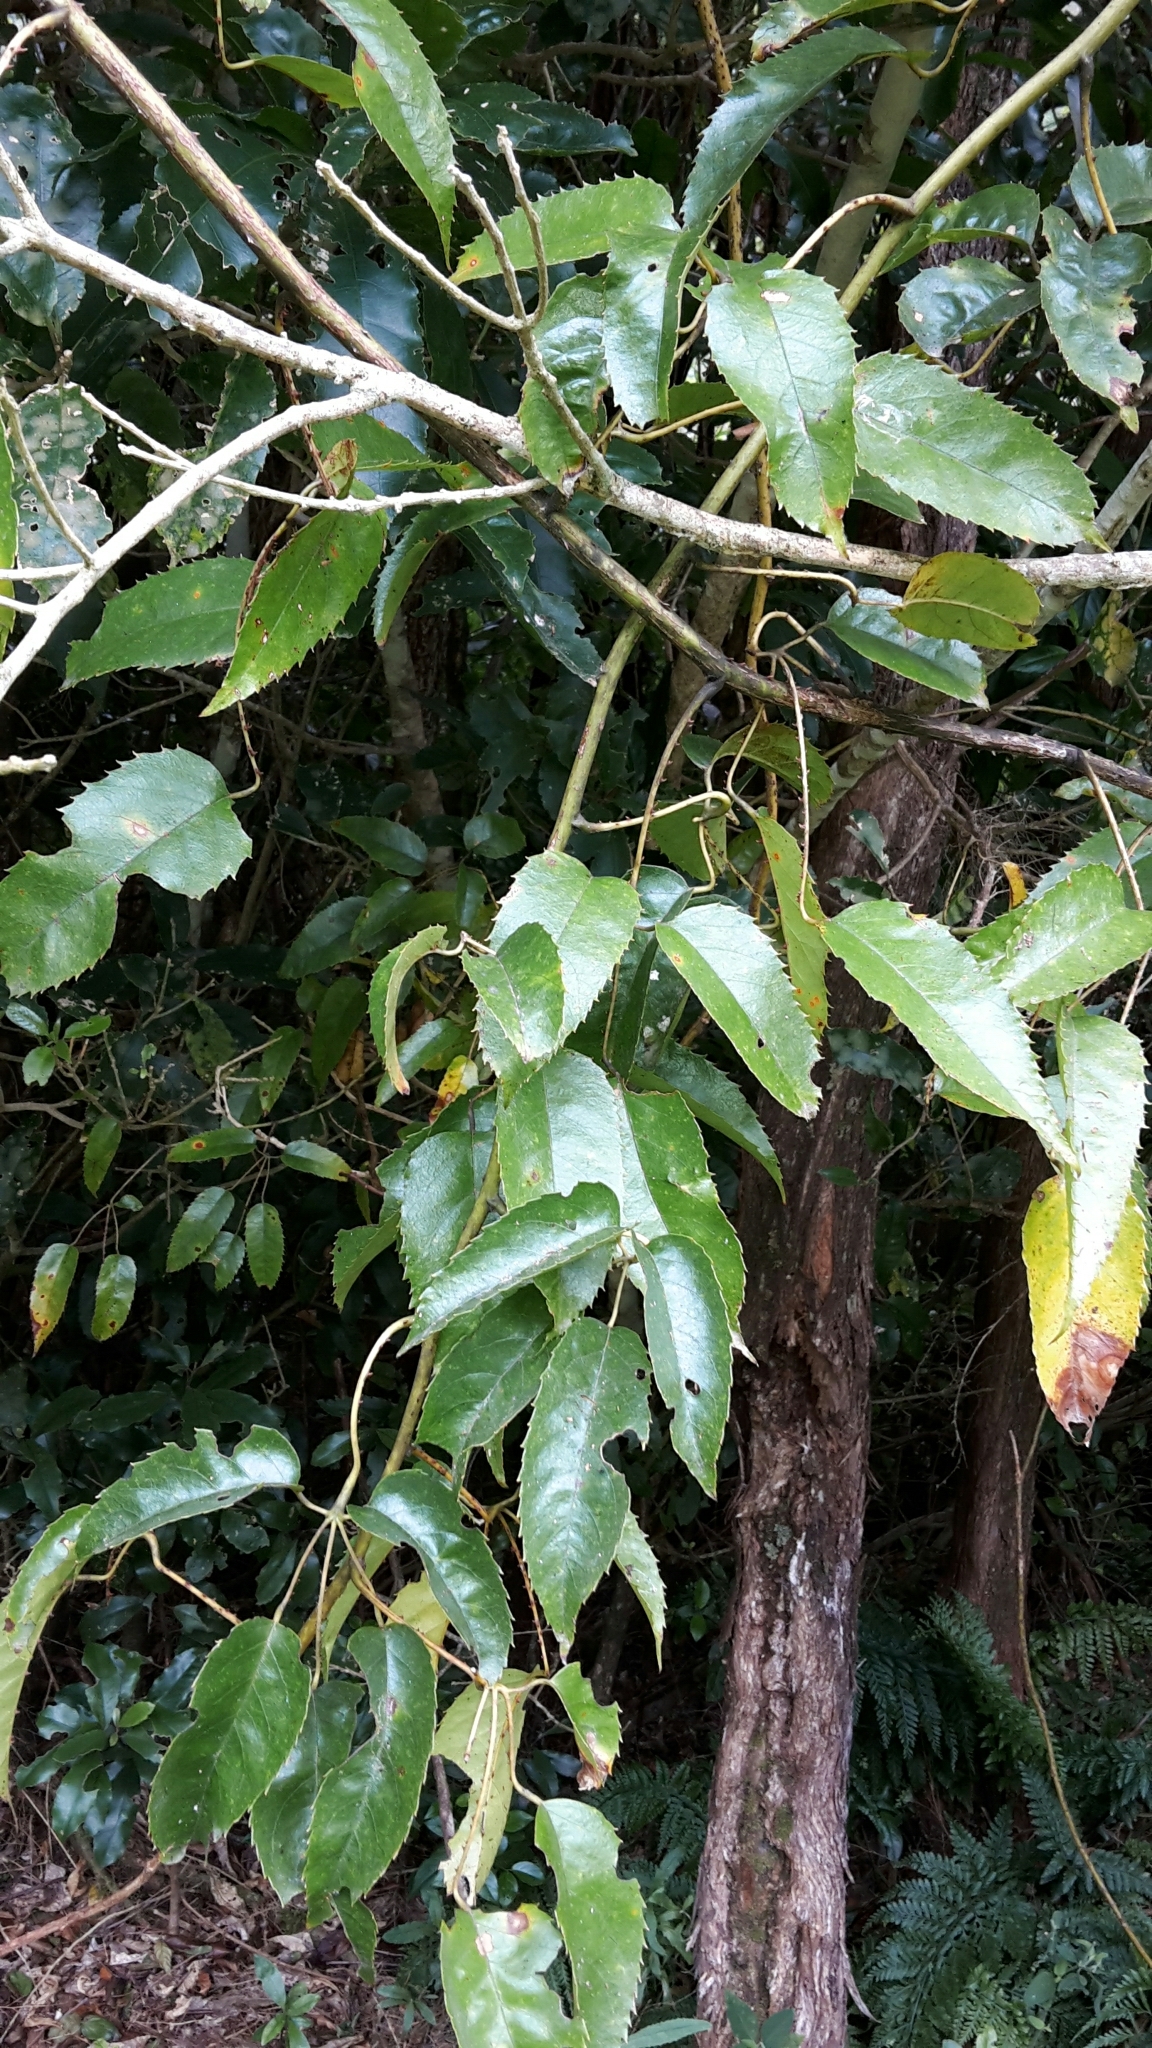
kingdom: Plantae
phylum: Tracheophyta
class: Magnoliopsida
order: Rosales
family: Rosaceae
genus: Rubus
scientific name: Rubus cissoides
